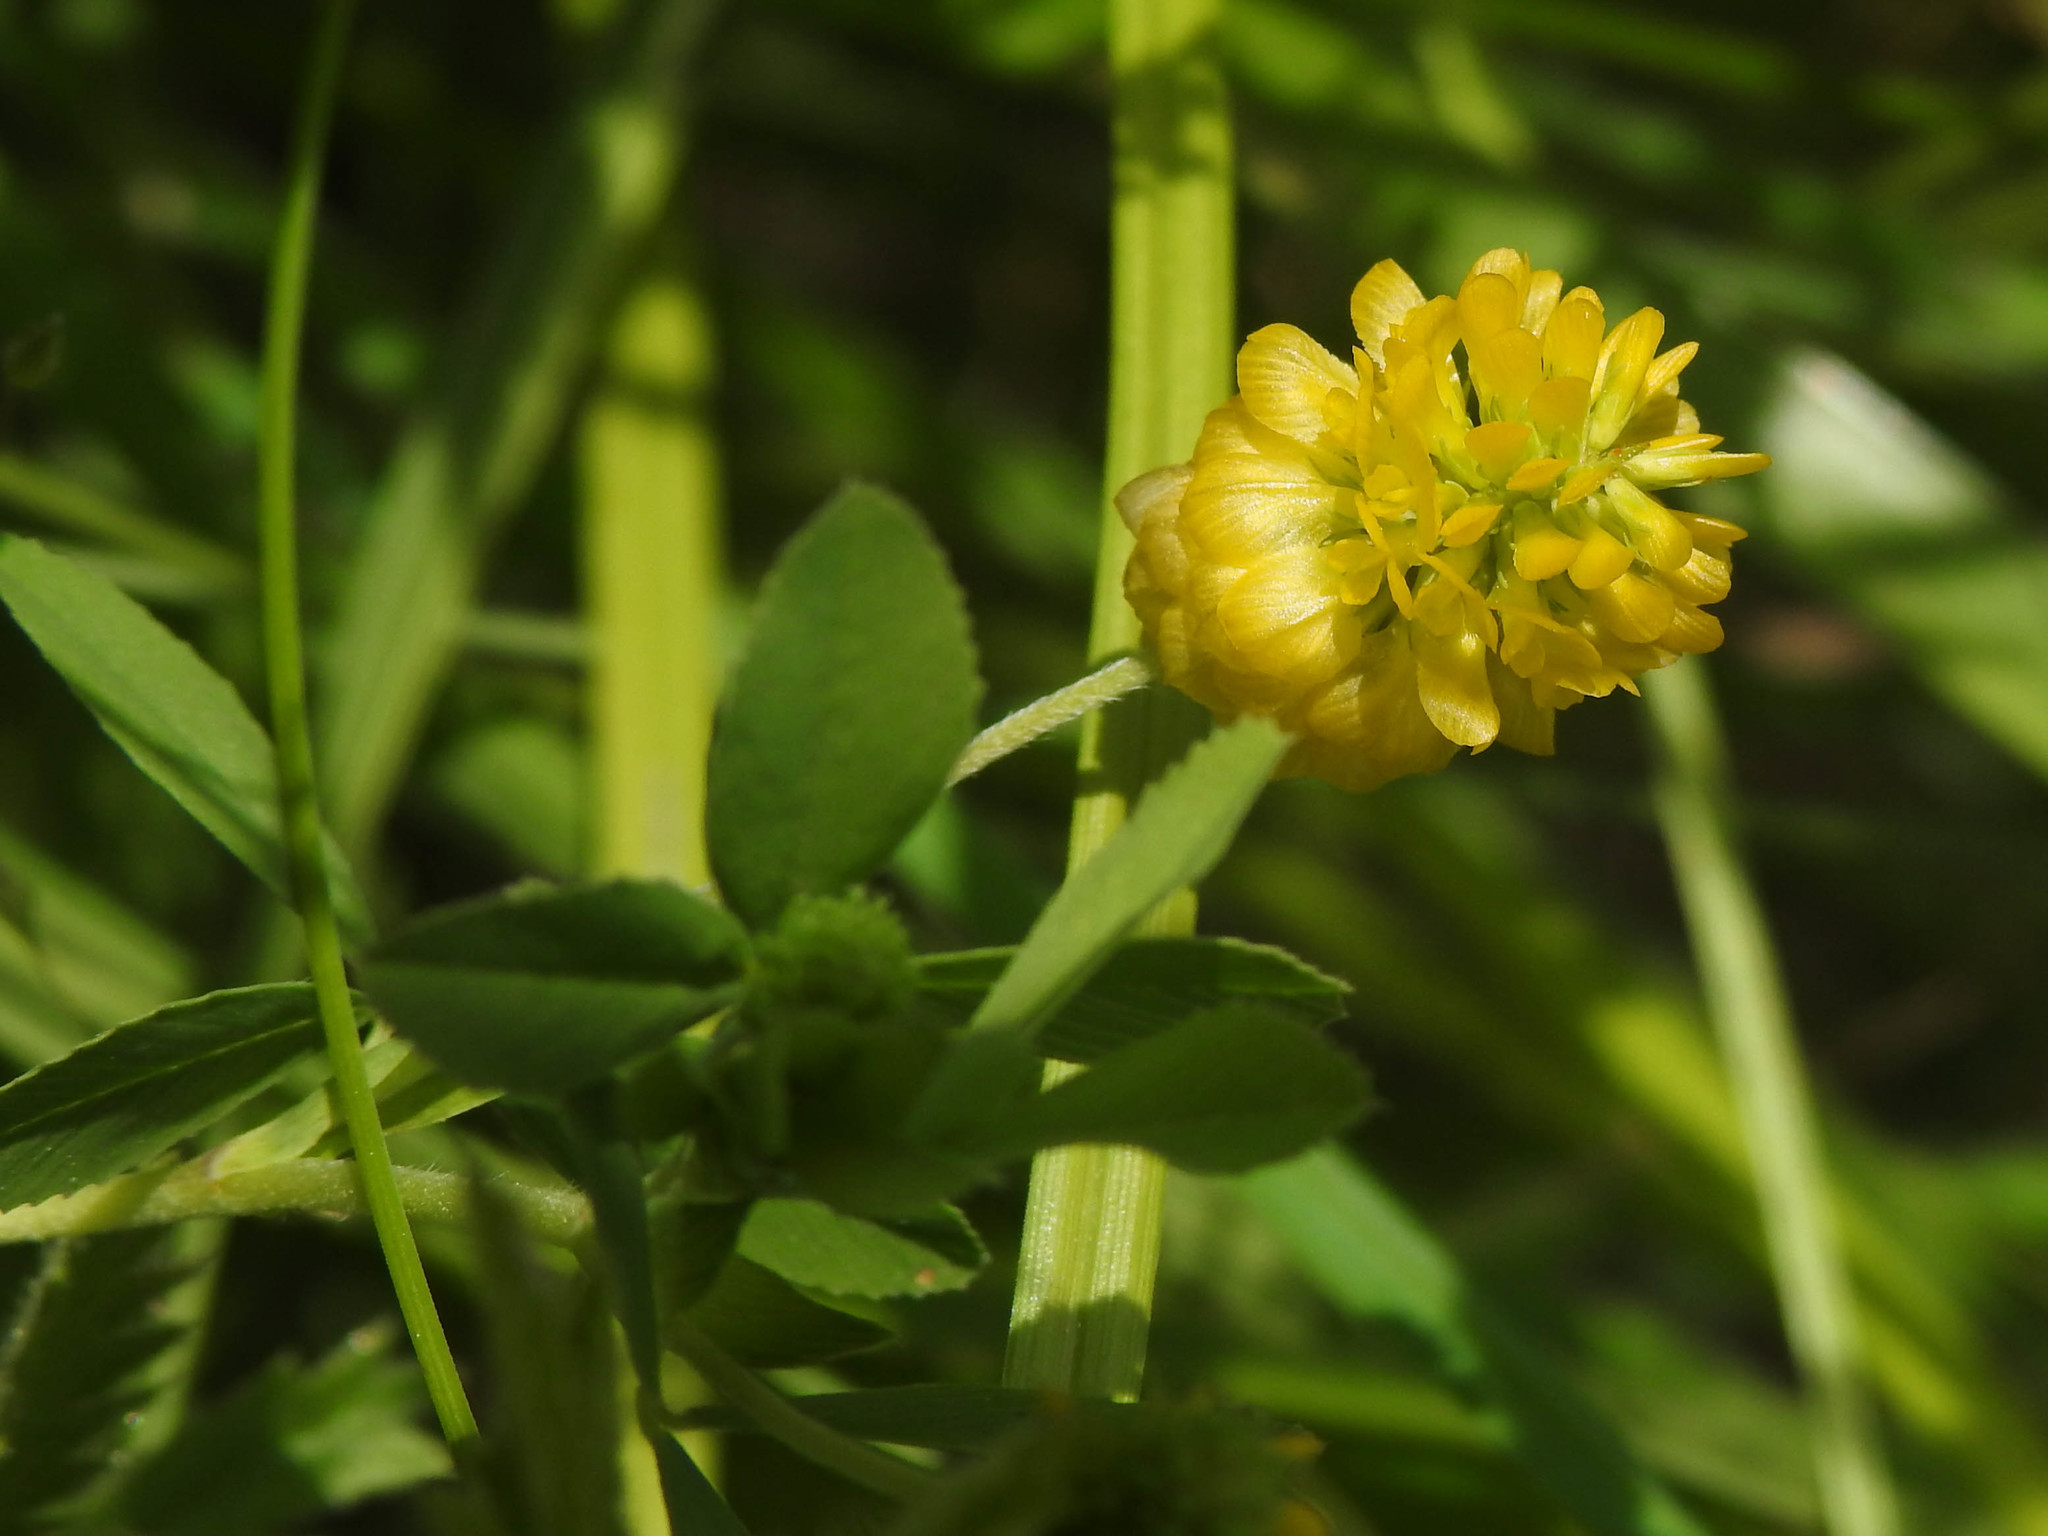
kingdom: Plantae
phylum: Tracheophyta
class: Magnoliopsida
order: Fabales
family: Fabaceae
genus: Trifolium
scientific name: Trifolium aureum
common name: Golden clover
